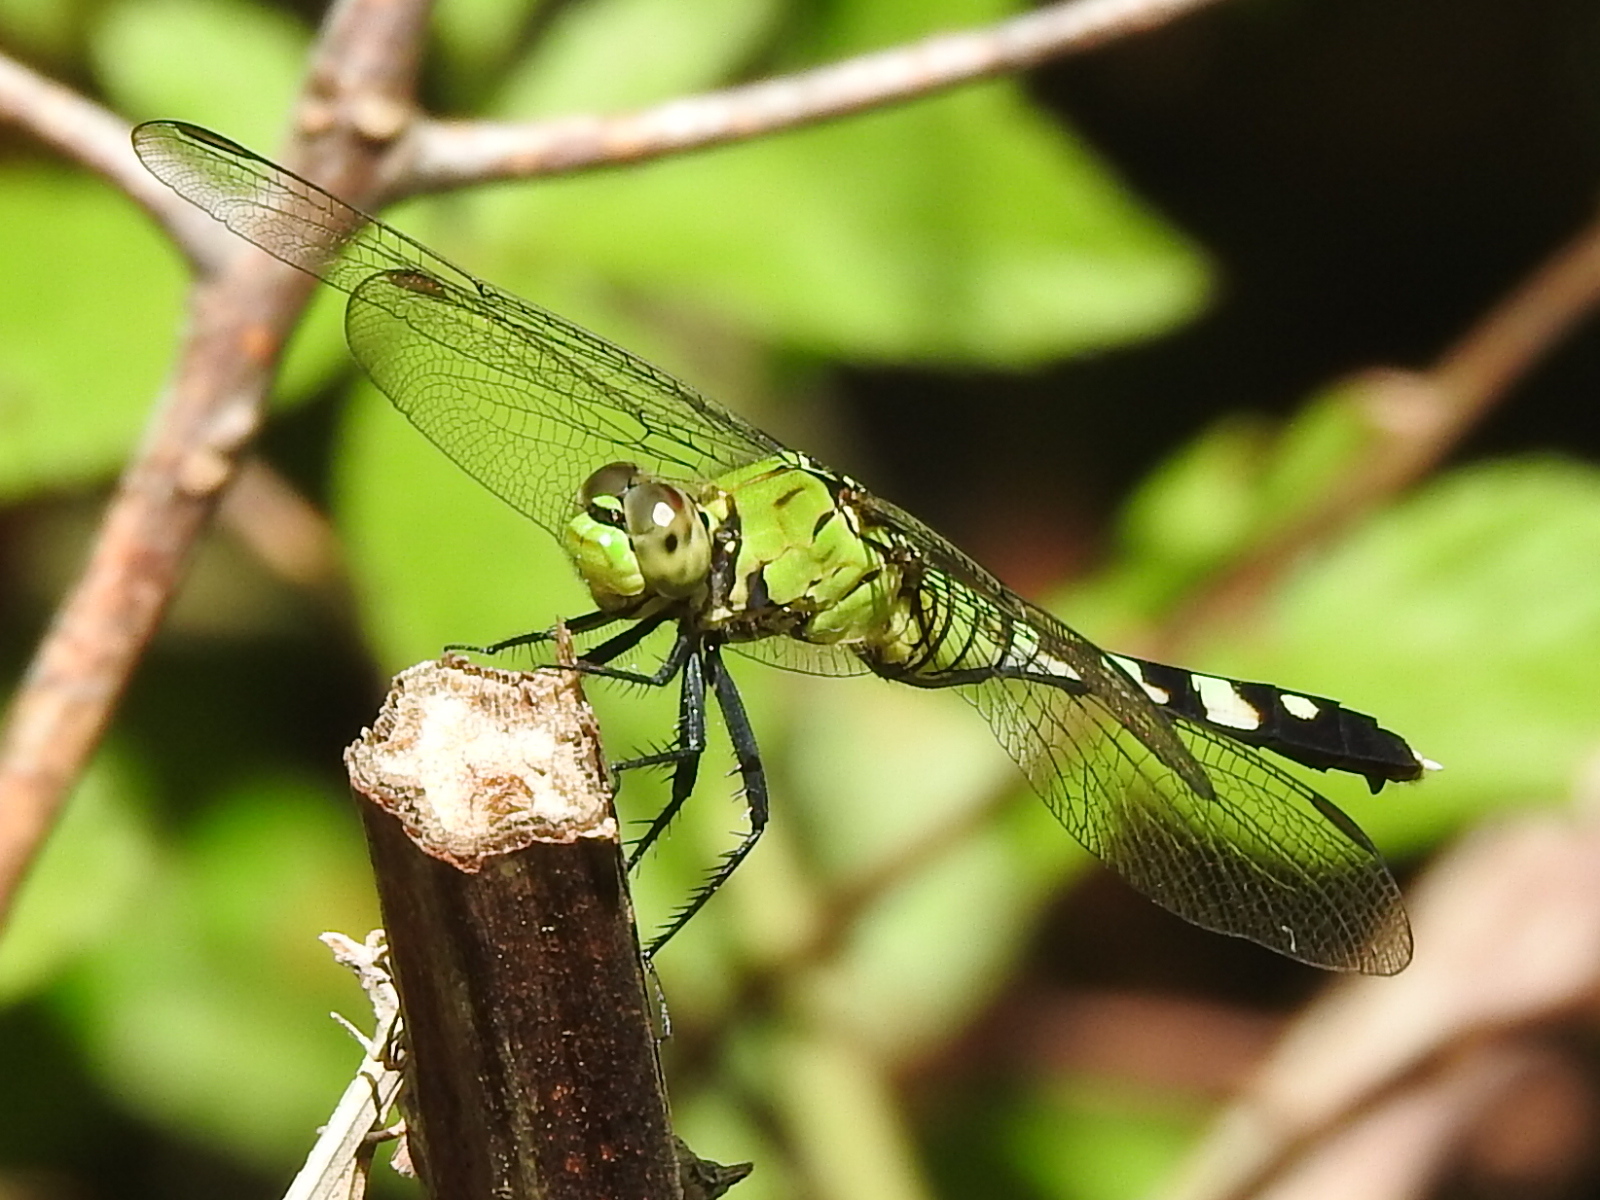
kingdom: Animalia
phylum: Arthropoda
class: Insecta
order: Odonata
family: Libellulidae
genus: Erythemis
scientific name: Erythemis simplicicollis
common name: Eastern pondhawk
